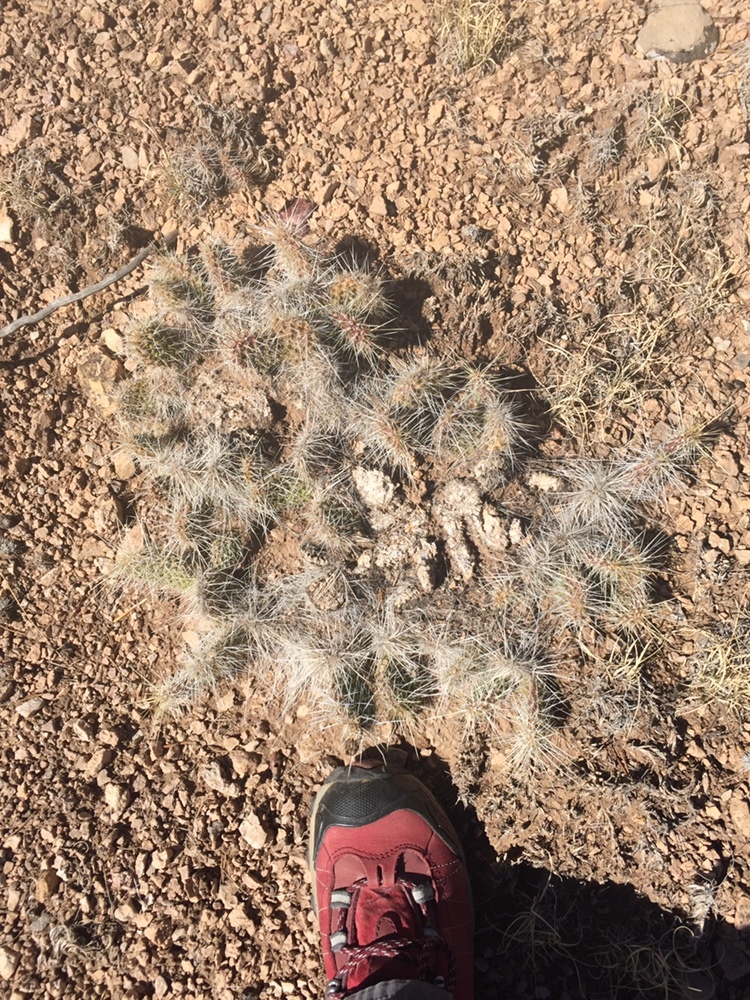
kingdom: Plantae
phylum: Tracheophyta
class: Magnoliopsida
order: Caryophyllales
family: Cactaceae
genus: Opuntia
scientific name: Opuntia polyacantha
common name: Plains prickly-pear
